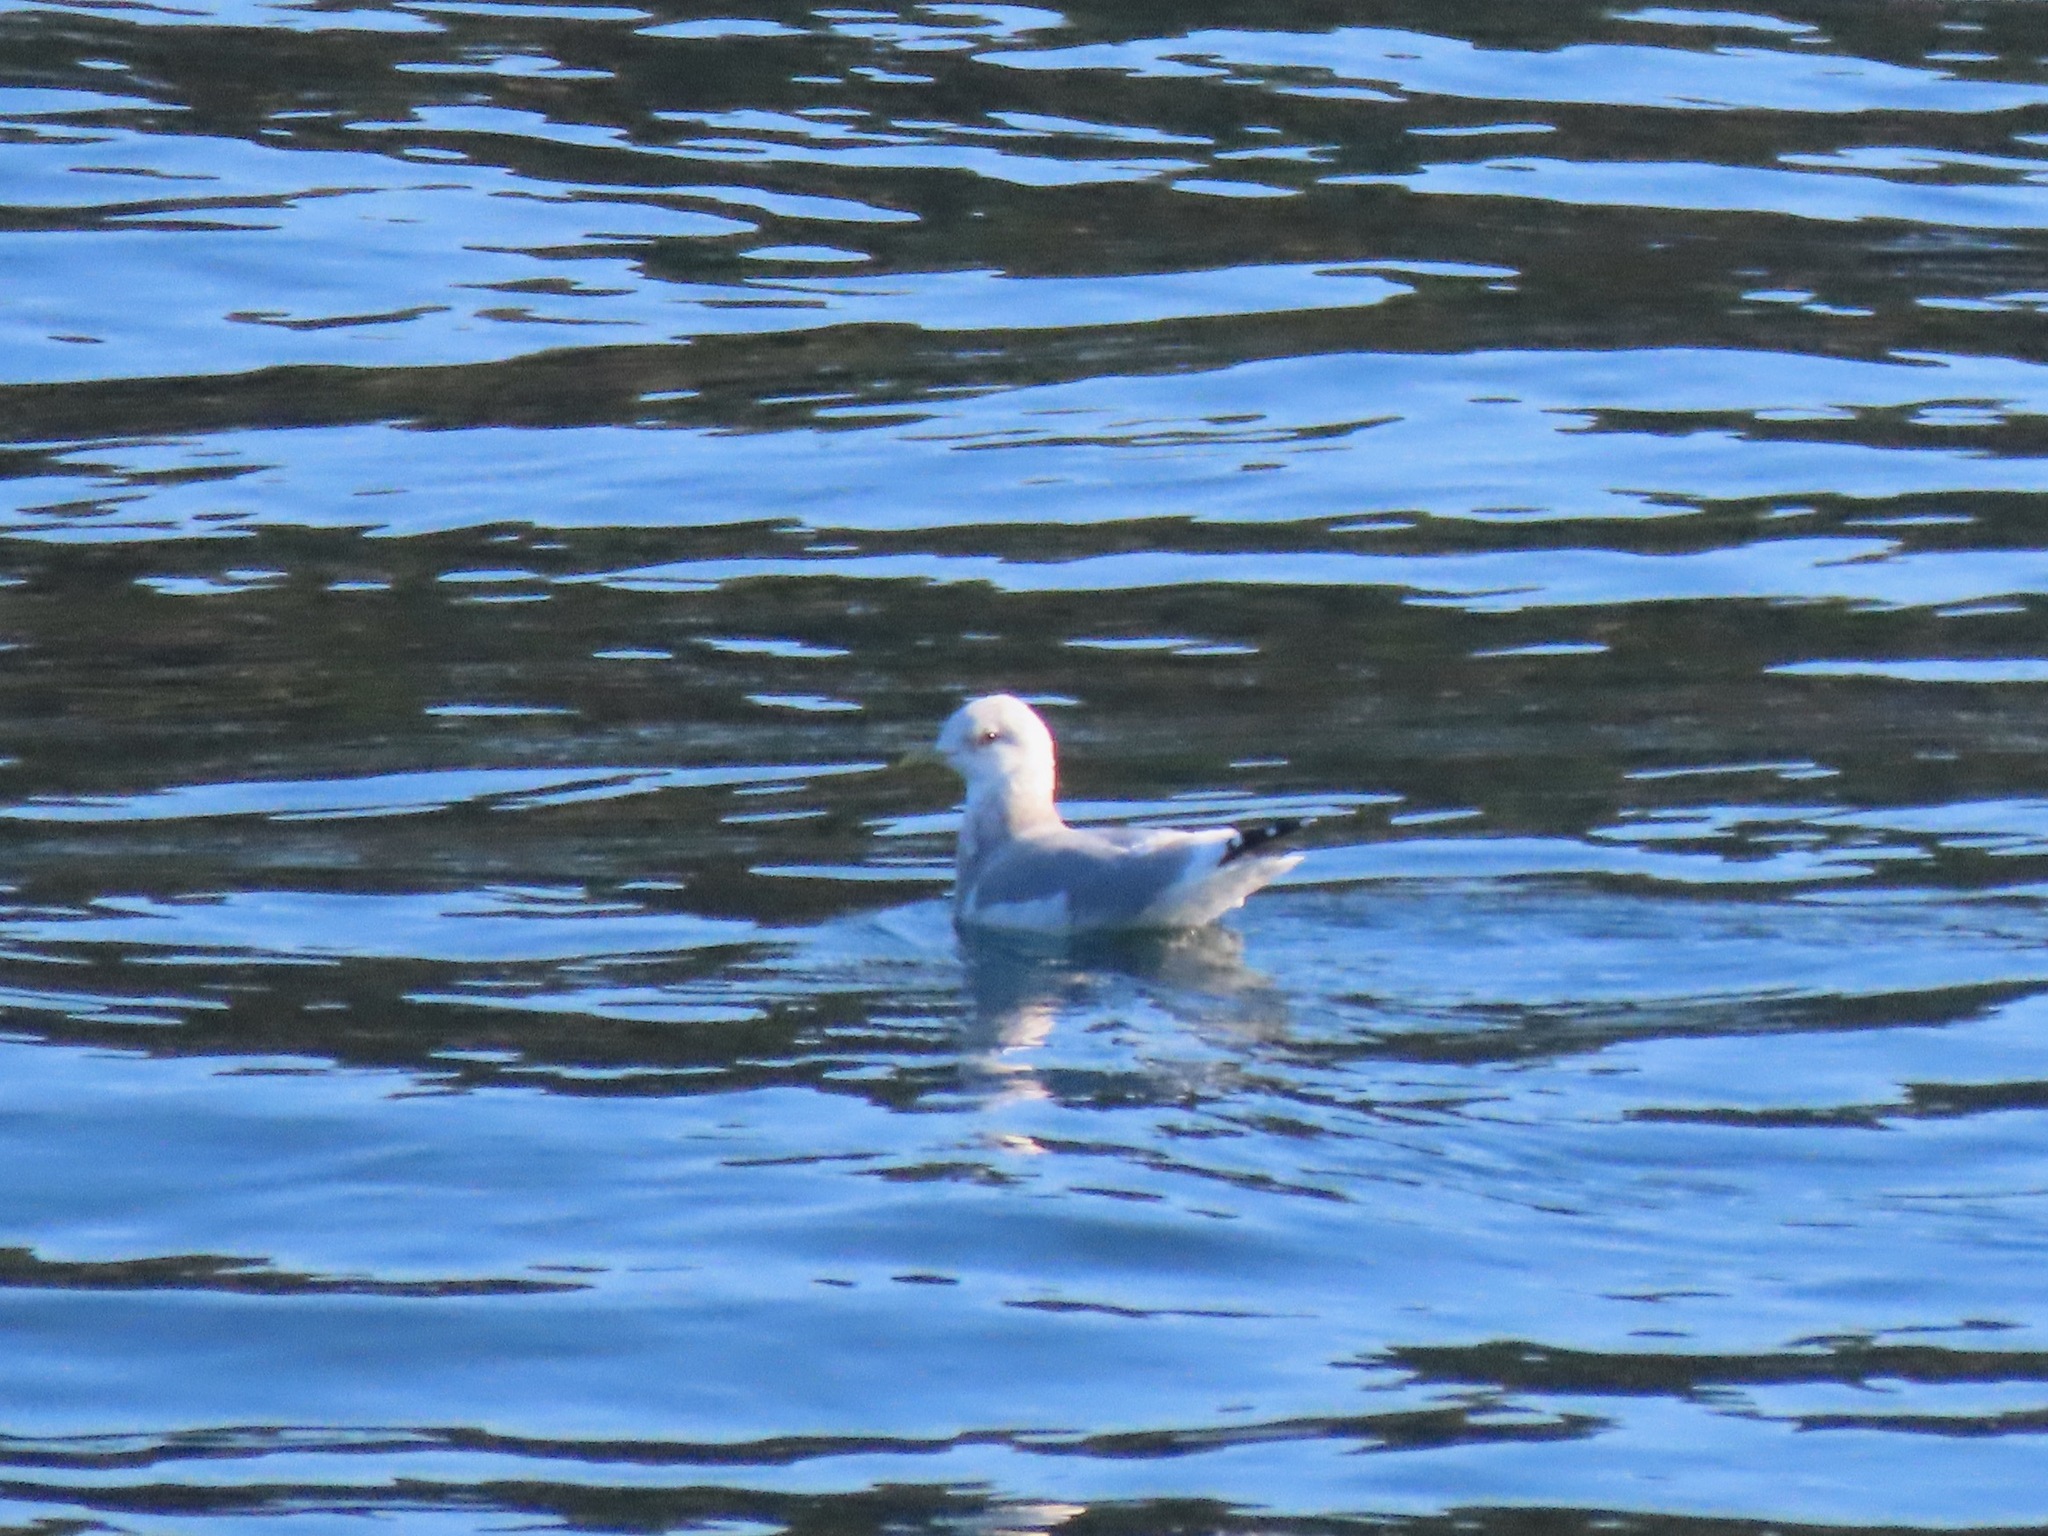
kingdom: Animalia
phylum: Chordata
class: Aves
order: Charadriiformes
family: Laridae
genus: Larus
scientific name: Larus brachyrhynchus
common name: Short-billed gull
